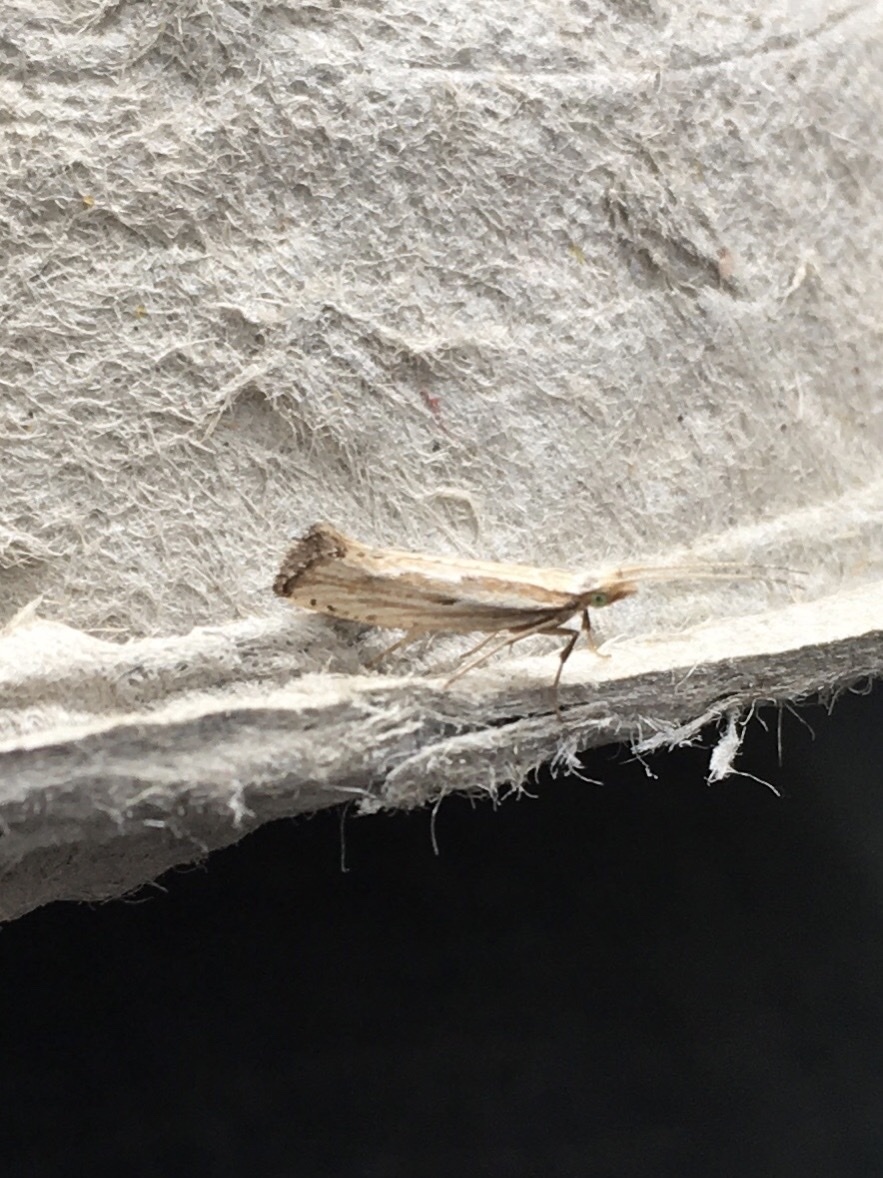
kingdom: Animalia
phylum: Arthropoda
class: Insecta
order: Lepidoptera
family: Plutellidae
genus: Plutella
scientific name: Plutella porrectella
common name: Dame's rocket moth
